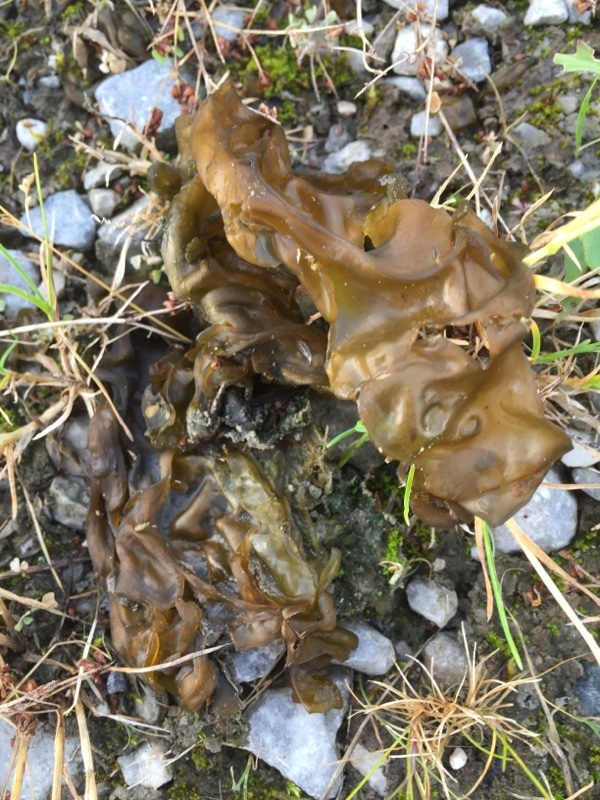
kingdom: Bacteria
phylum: Cyanobacteria
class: Cyanobacteriia
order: Cyanobacteriales
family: Nostocaceae
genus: Nostoc
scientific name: Nostoc commune
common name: Star jelly
